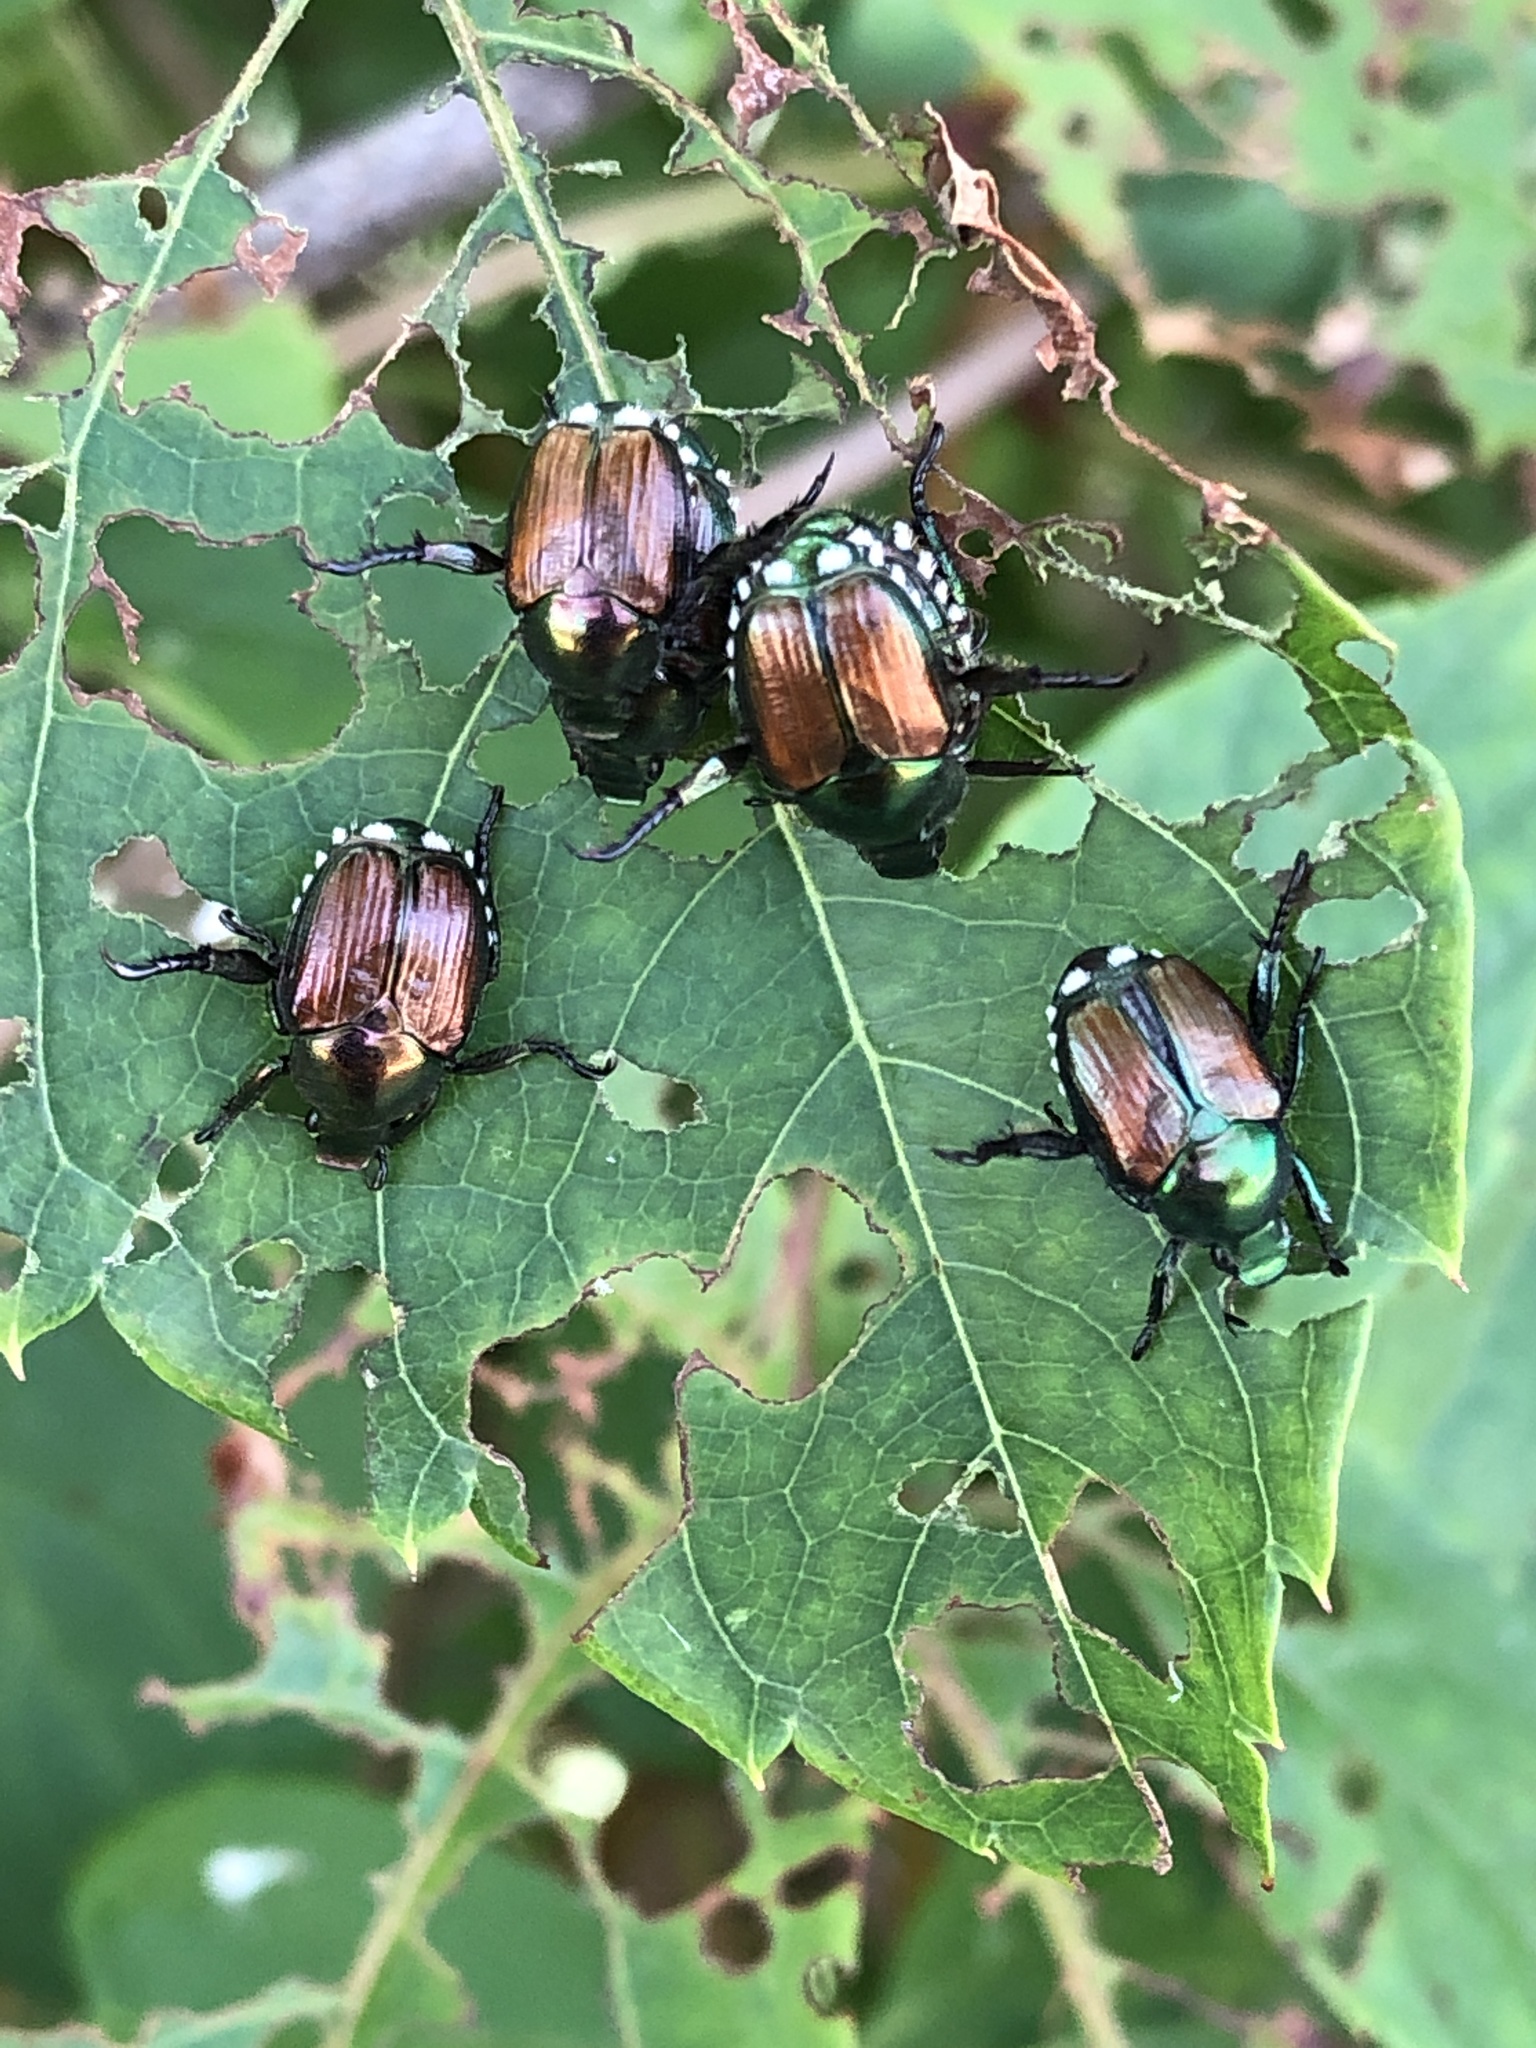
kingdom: Animalia
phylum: Arthropoda
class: Insecta
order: Coleoptera
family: Scarabaeidae
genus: Popillia
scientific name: Popillia japonica
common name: Japanese beetle
